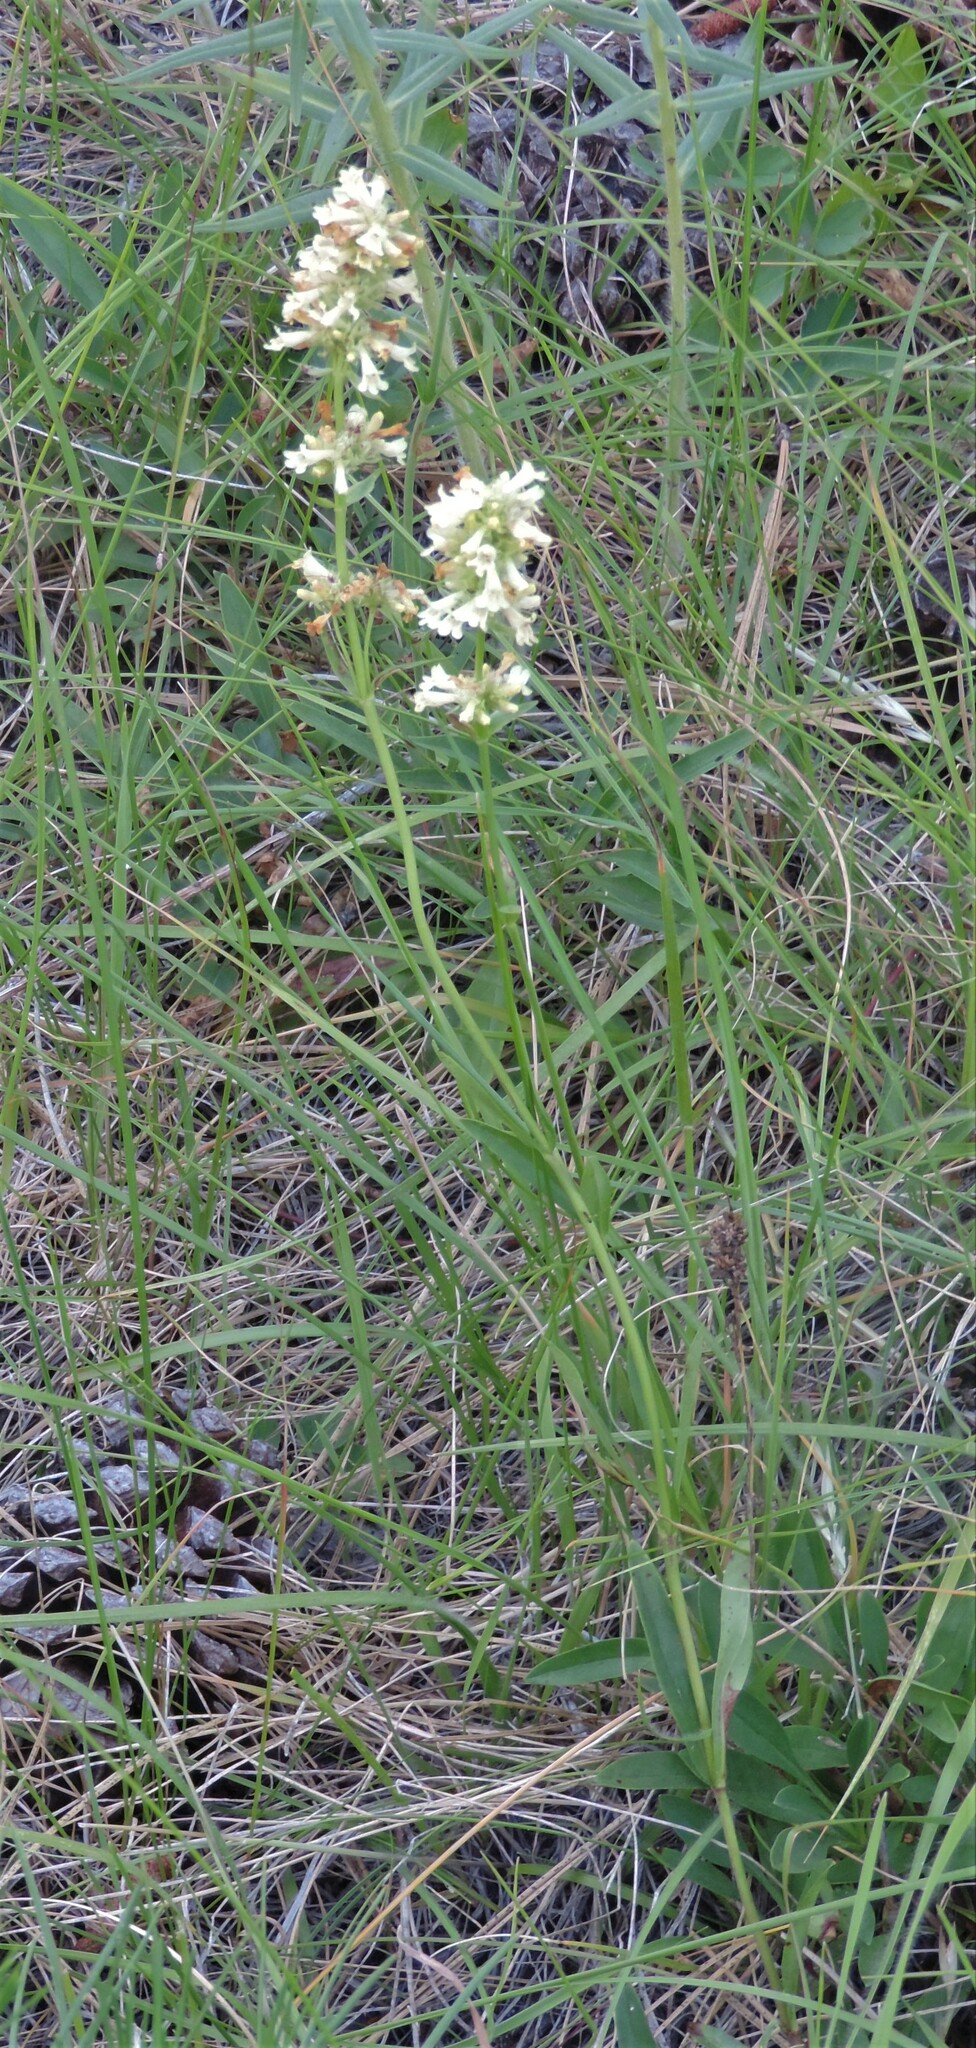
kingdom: Plantae
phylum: Tracheophyta
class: Magnoliopsida
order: Lamiales
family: Plantaginaceae
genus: Penstemon
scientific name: Penstemon confertus
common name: Lesser yellow beardtongue
